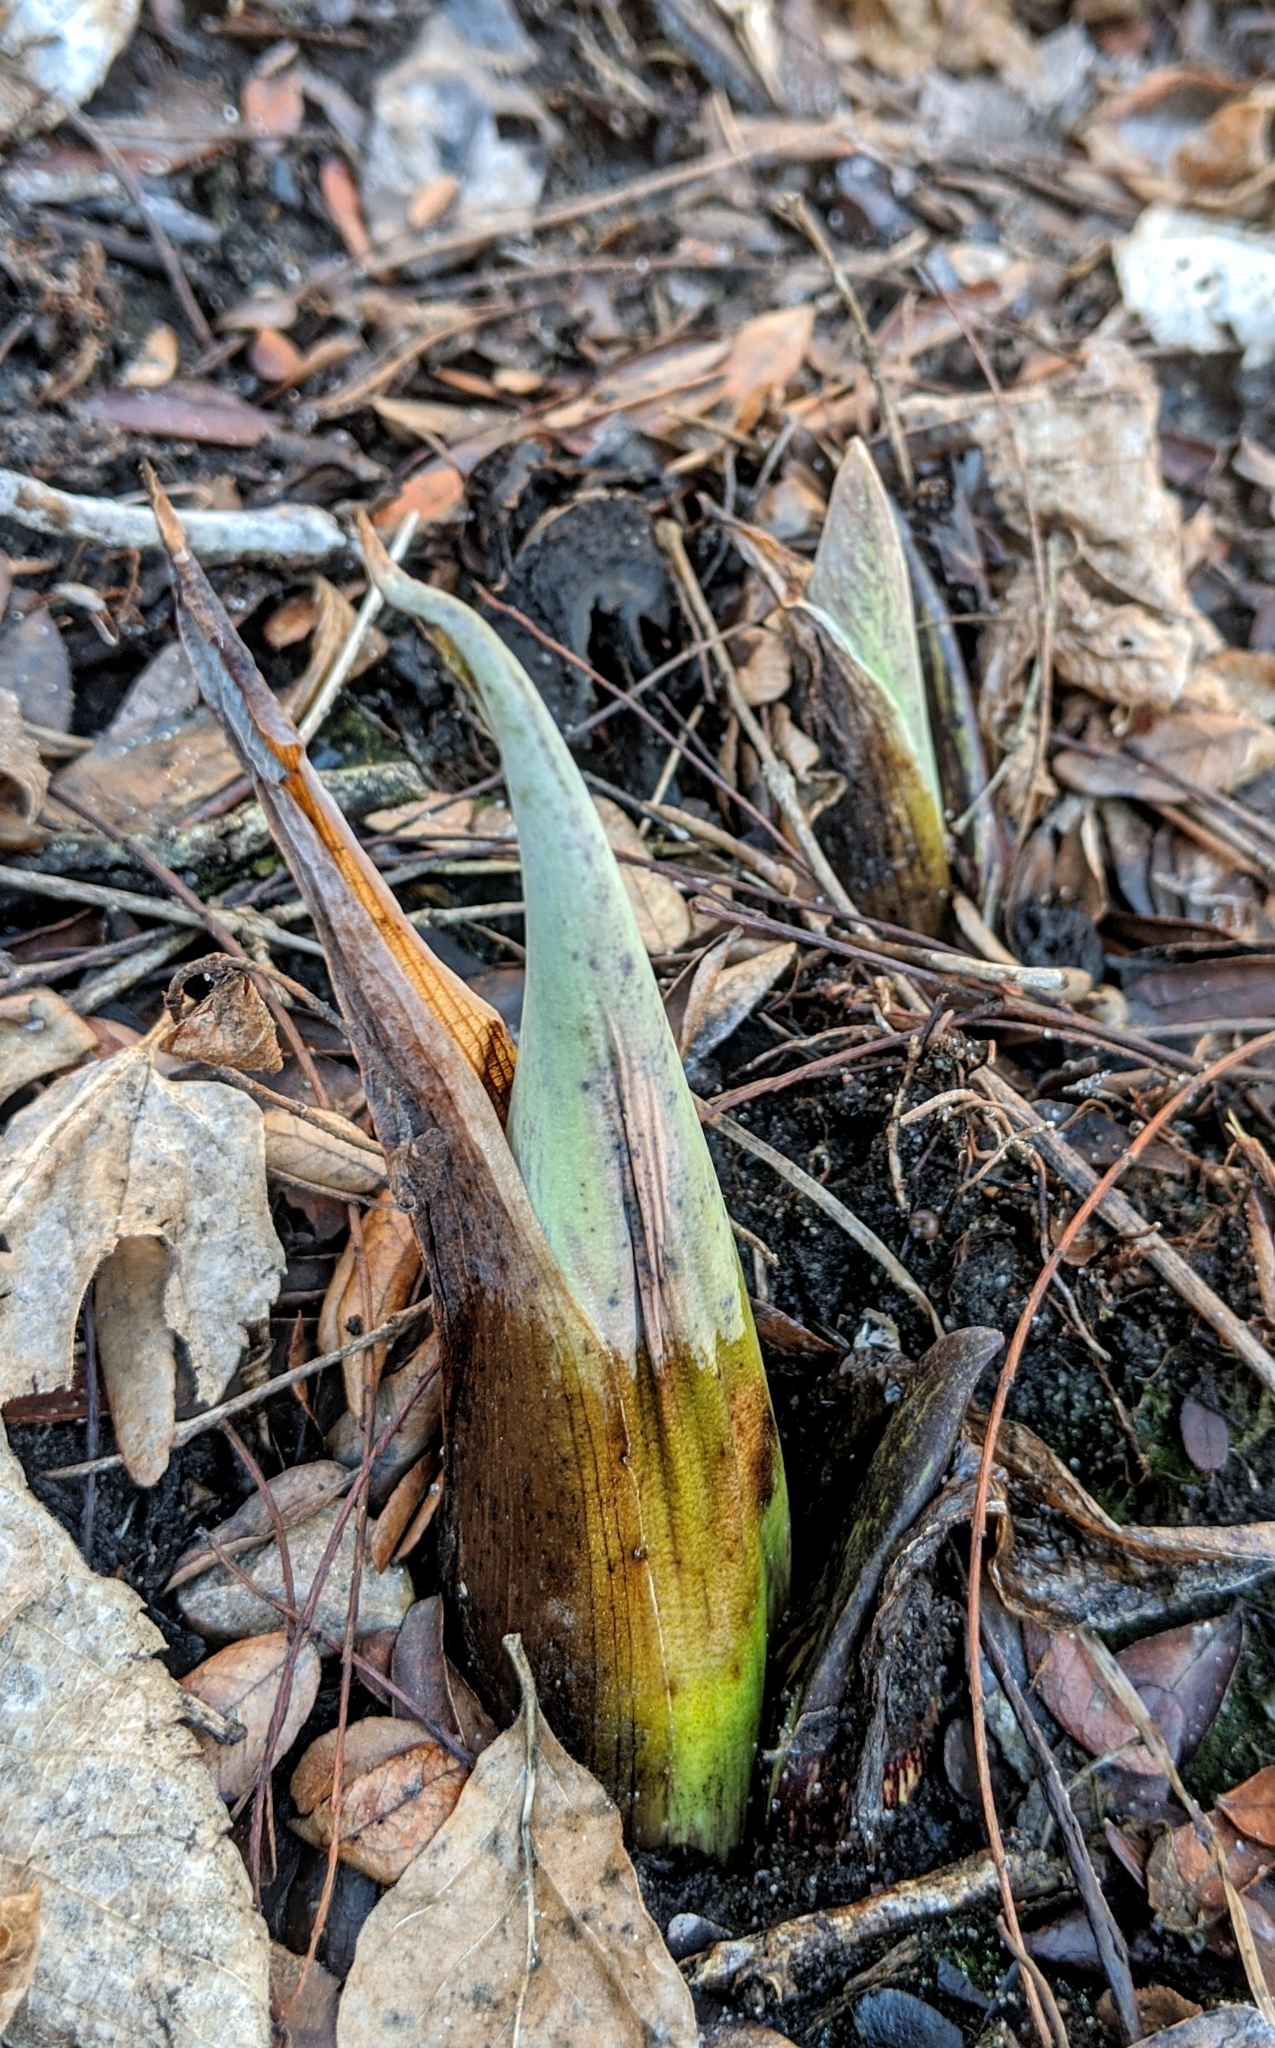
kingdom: Plantae
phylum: Tracheophyta
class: Liliopsida
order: Alismatales
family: Araceae
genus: Symplocarpus
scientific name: Symplocarpus foetidus
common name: Eastern skunk cabbage
